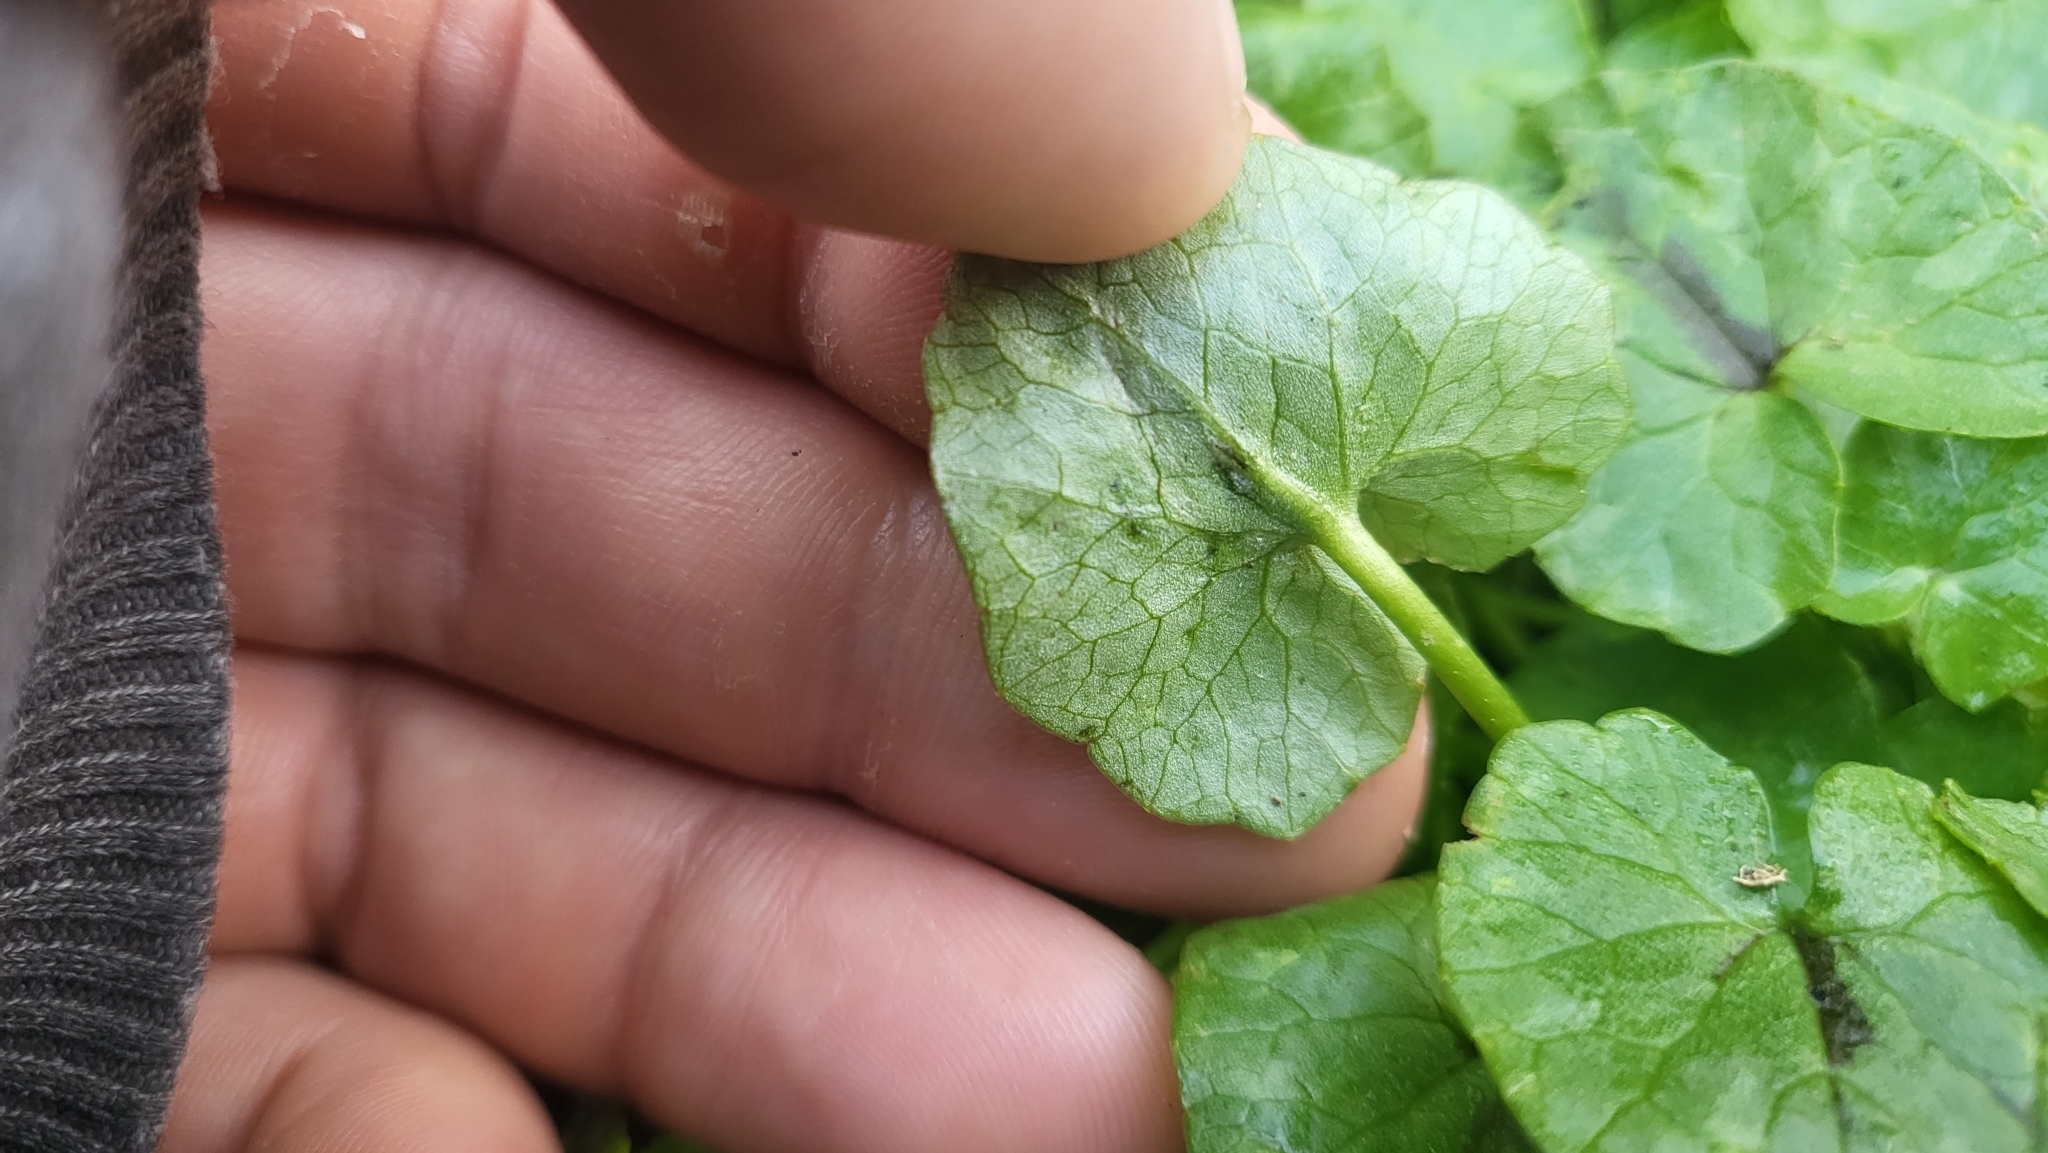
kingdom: Plantae
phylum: Tracheophyta
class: Magnoliopsida
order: Ranunculales
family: Ranunculaceae
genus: Ficaria
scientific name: Ficaria verna
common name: Lesser celandine
